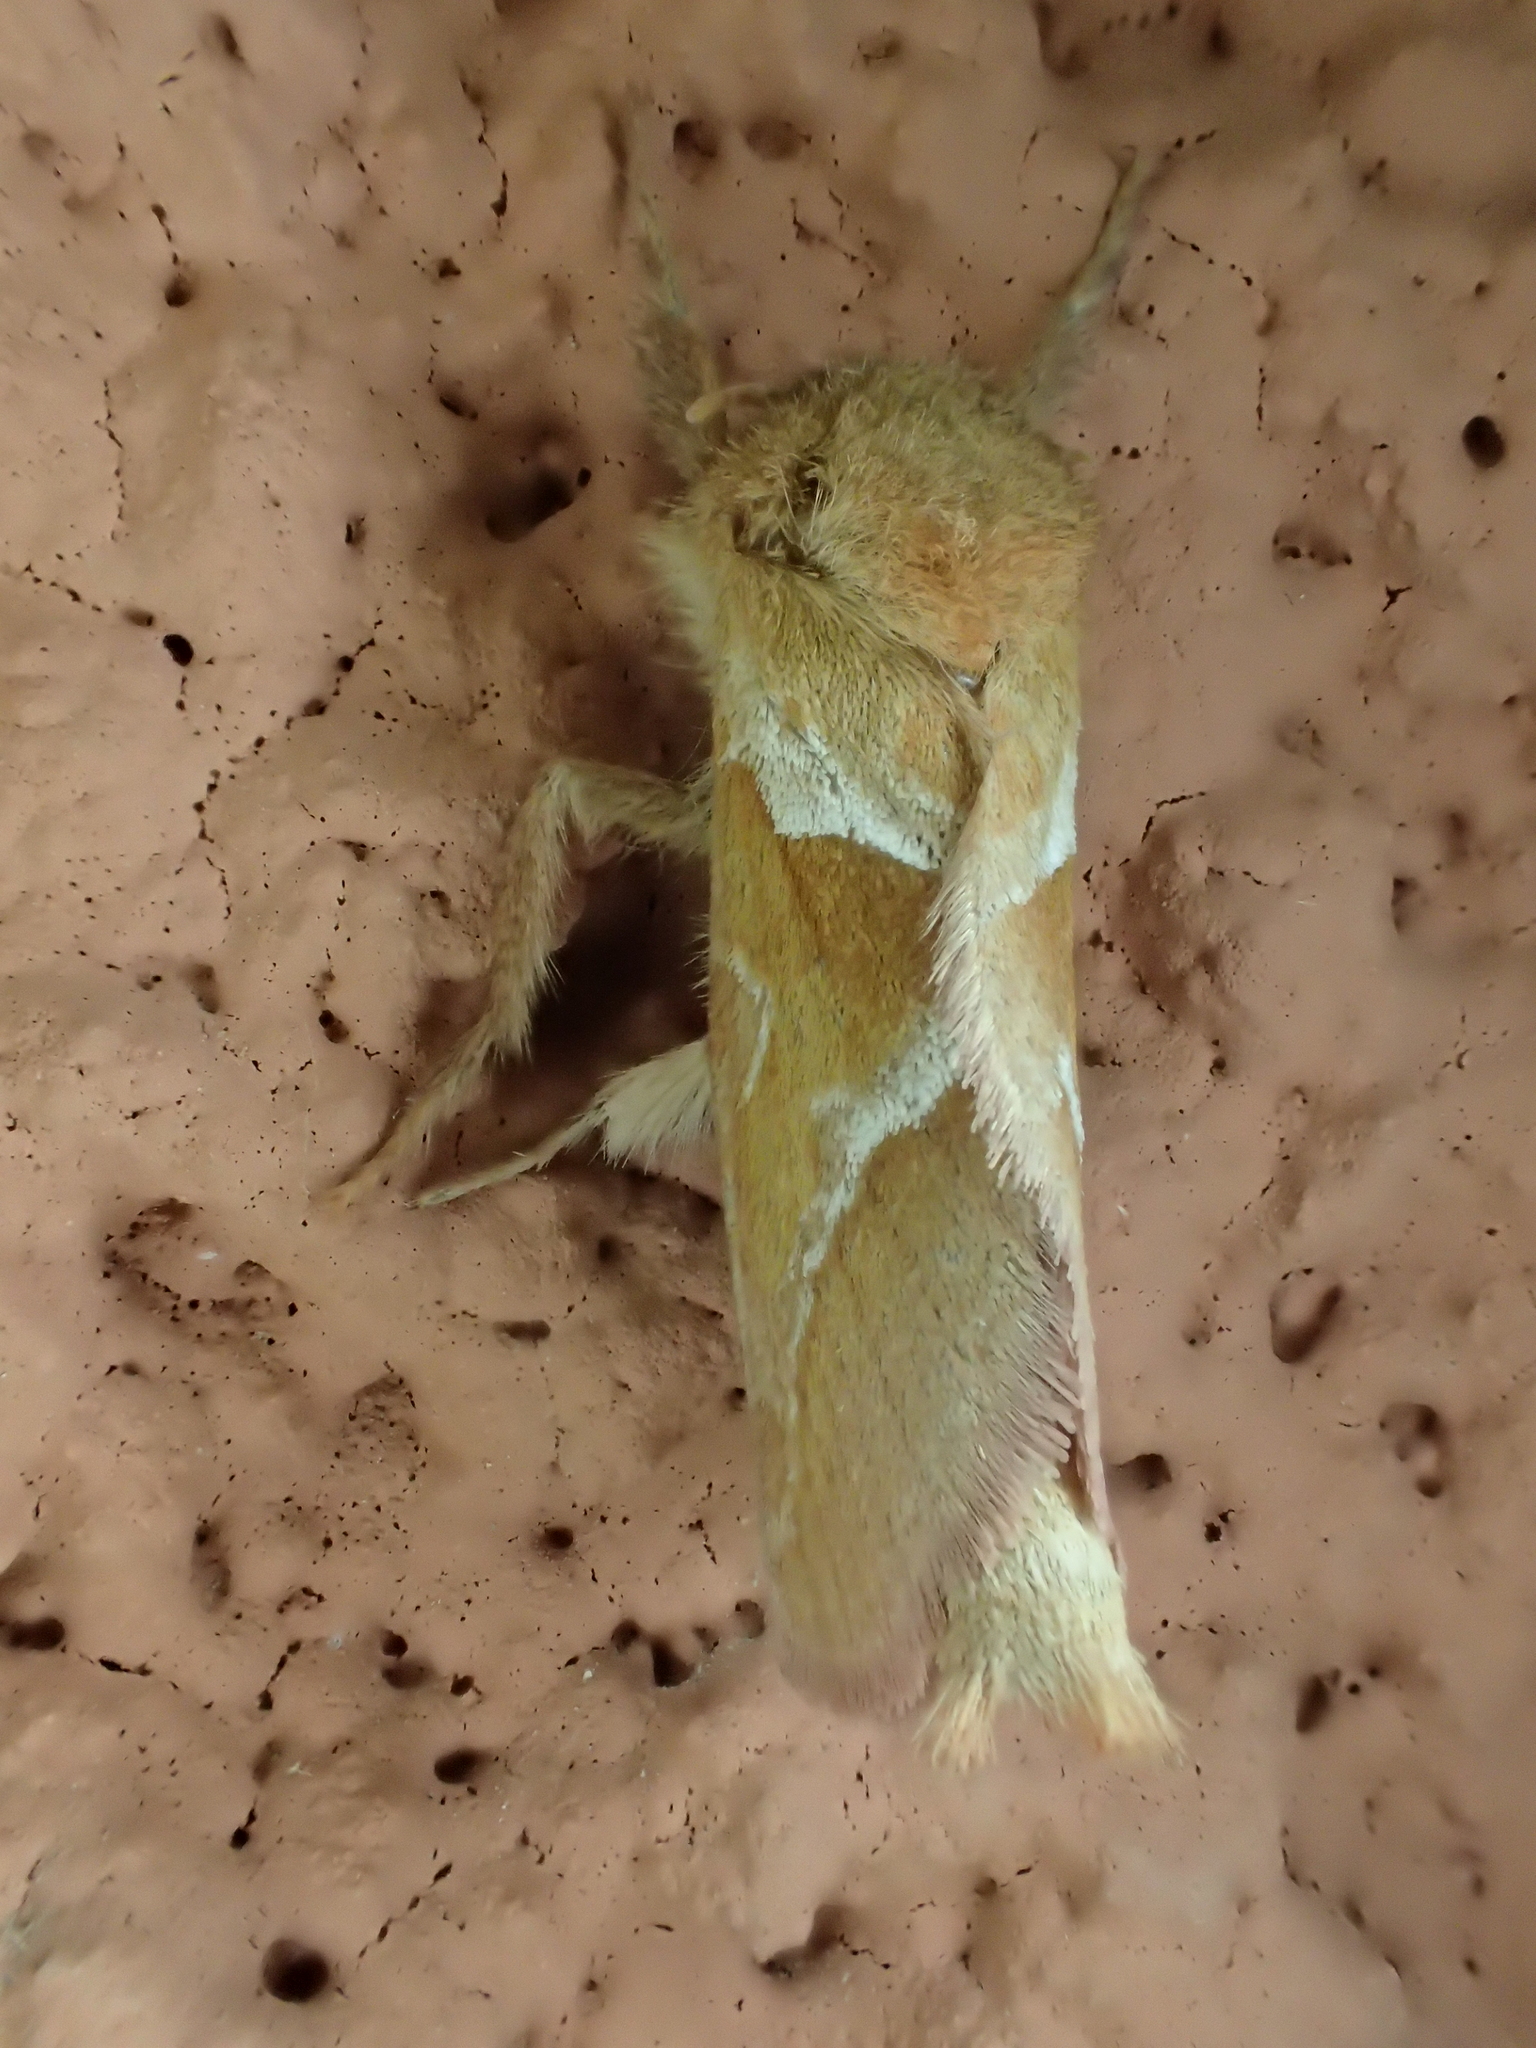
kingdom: Animalia
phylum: Arthropoda
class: Insecta
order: Lepidoptera
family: Hepialidae
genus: Triodia
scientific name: Triodia sylvina
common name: Orange swift
